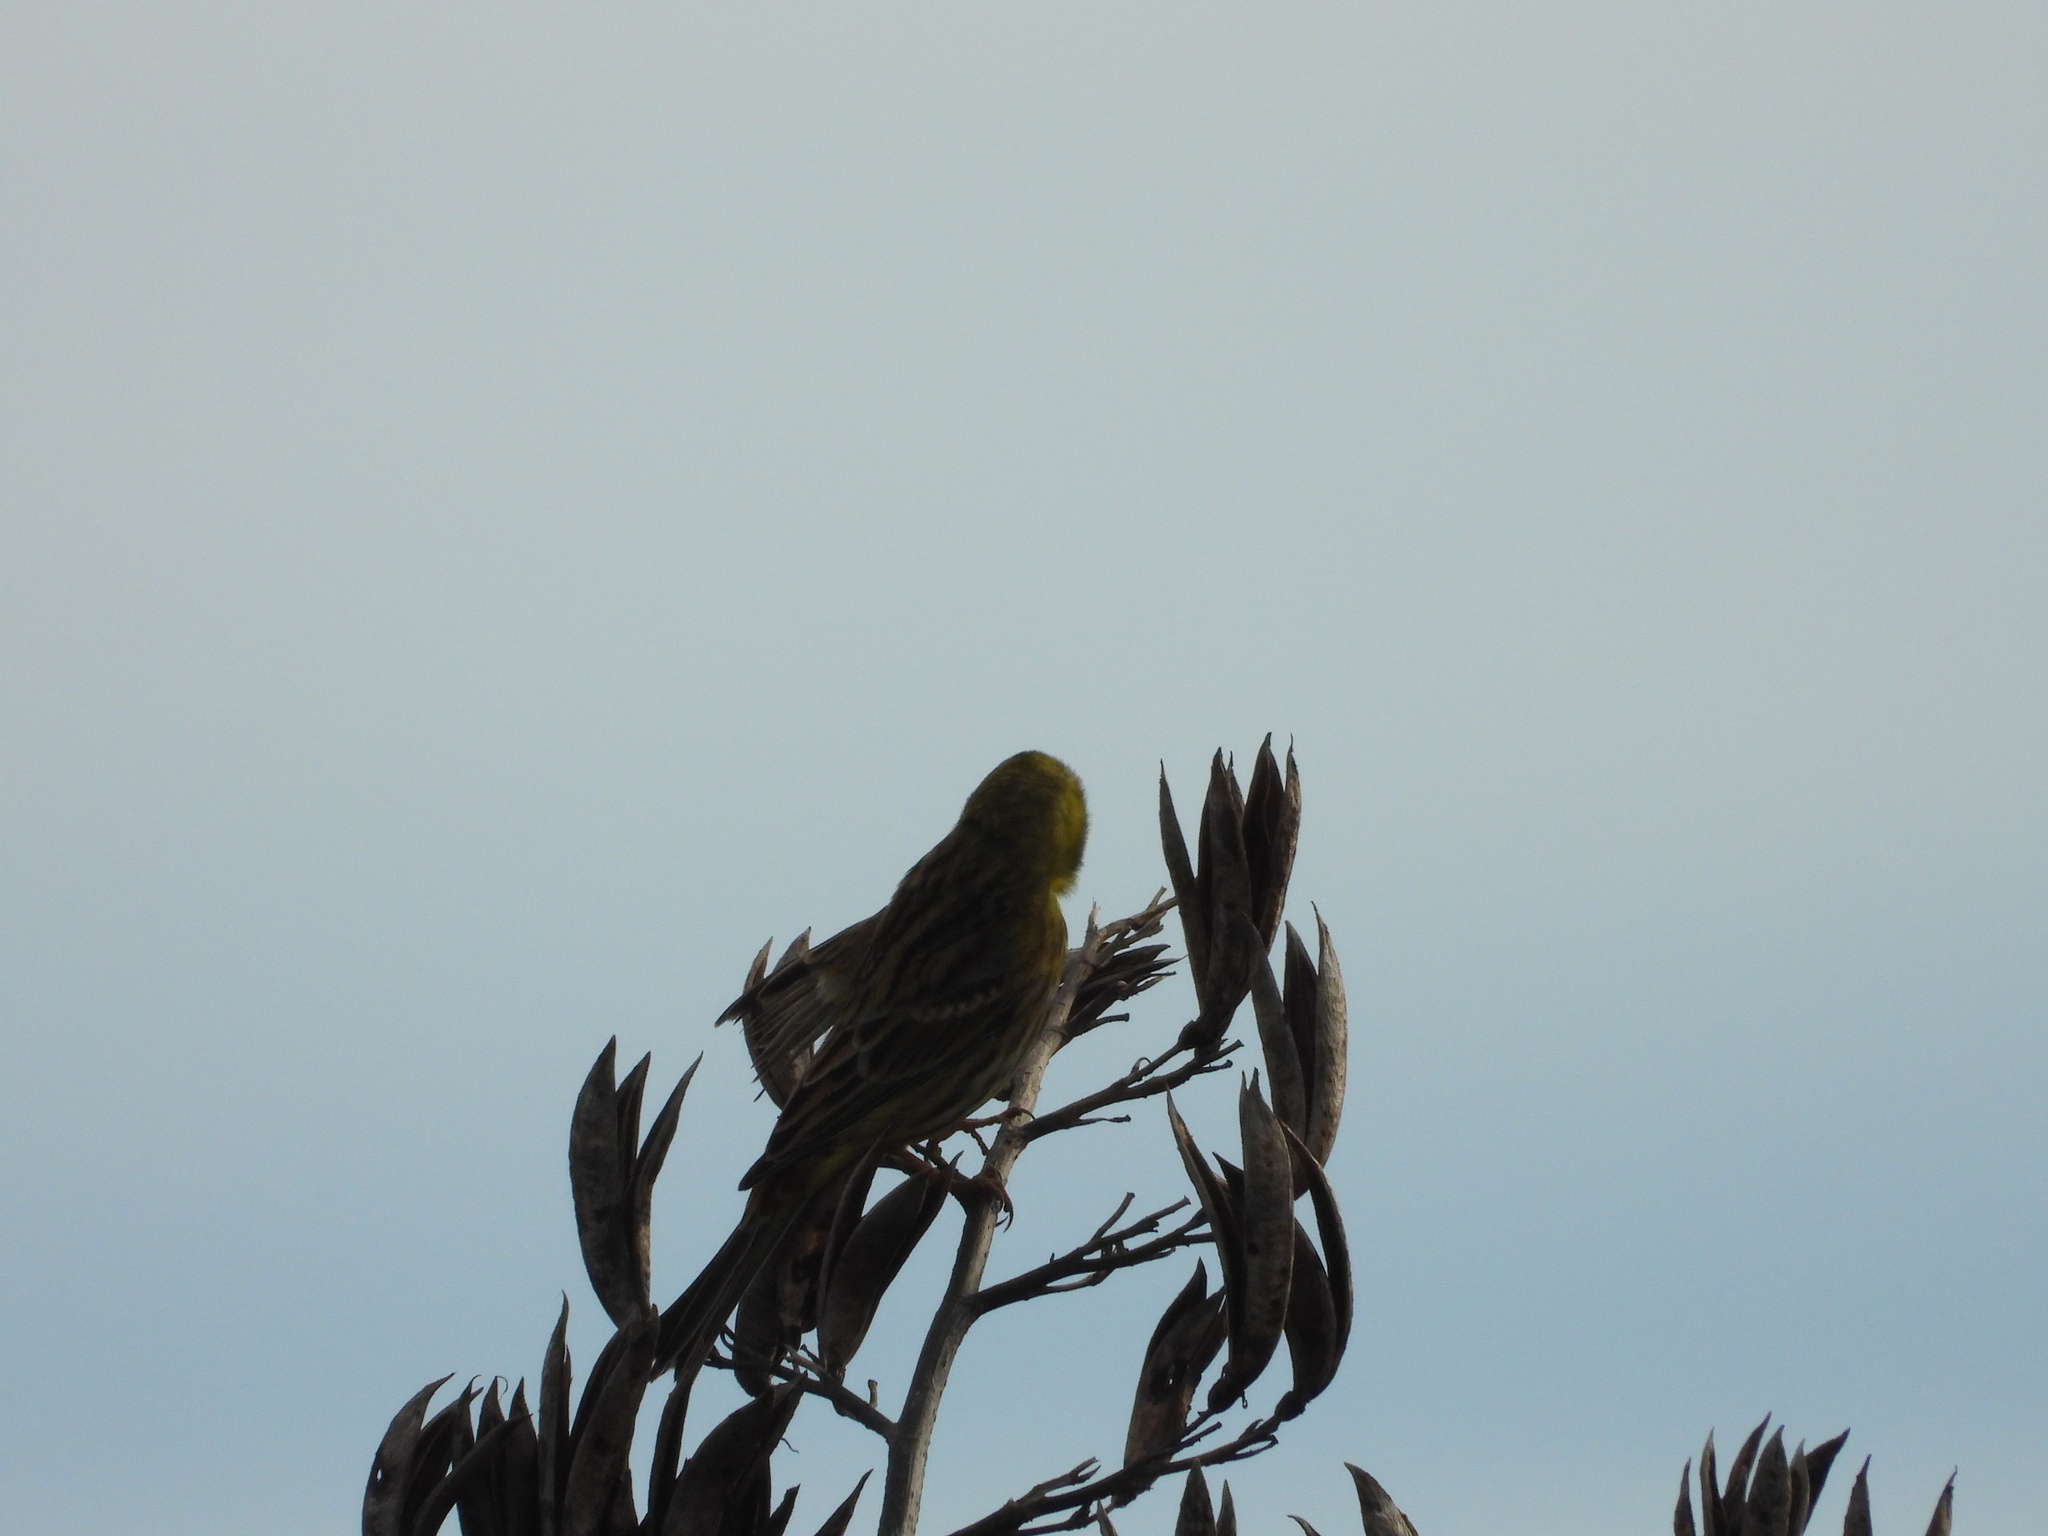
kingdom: Animalia
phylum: Chordata
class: Aves
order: Passeriformes
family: Emberizidae
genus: Emberiza
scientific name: Emberiza citrinella
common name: Yellowhammer
